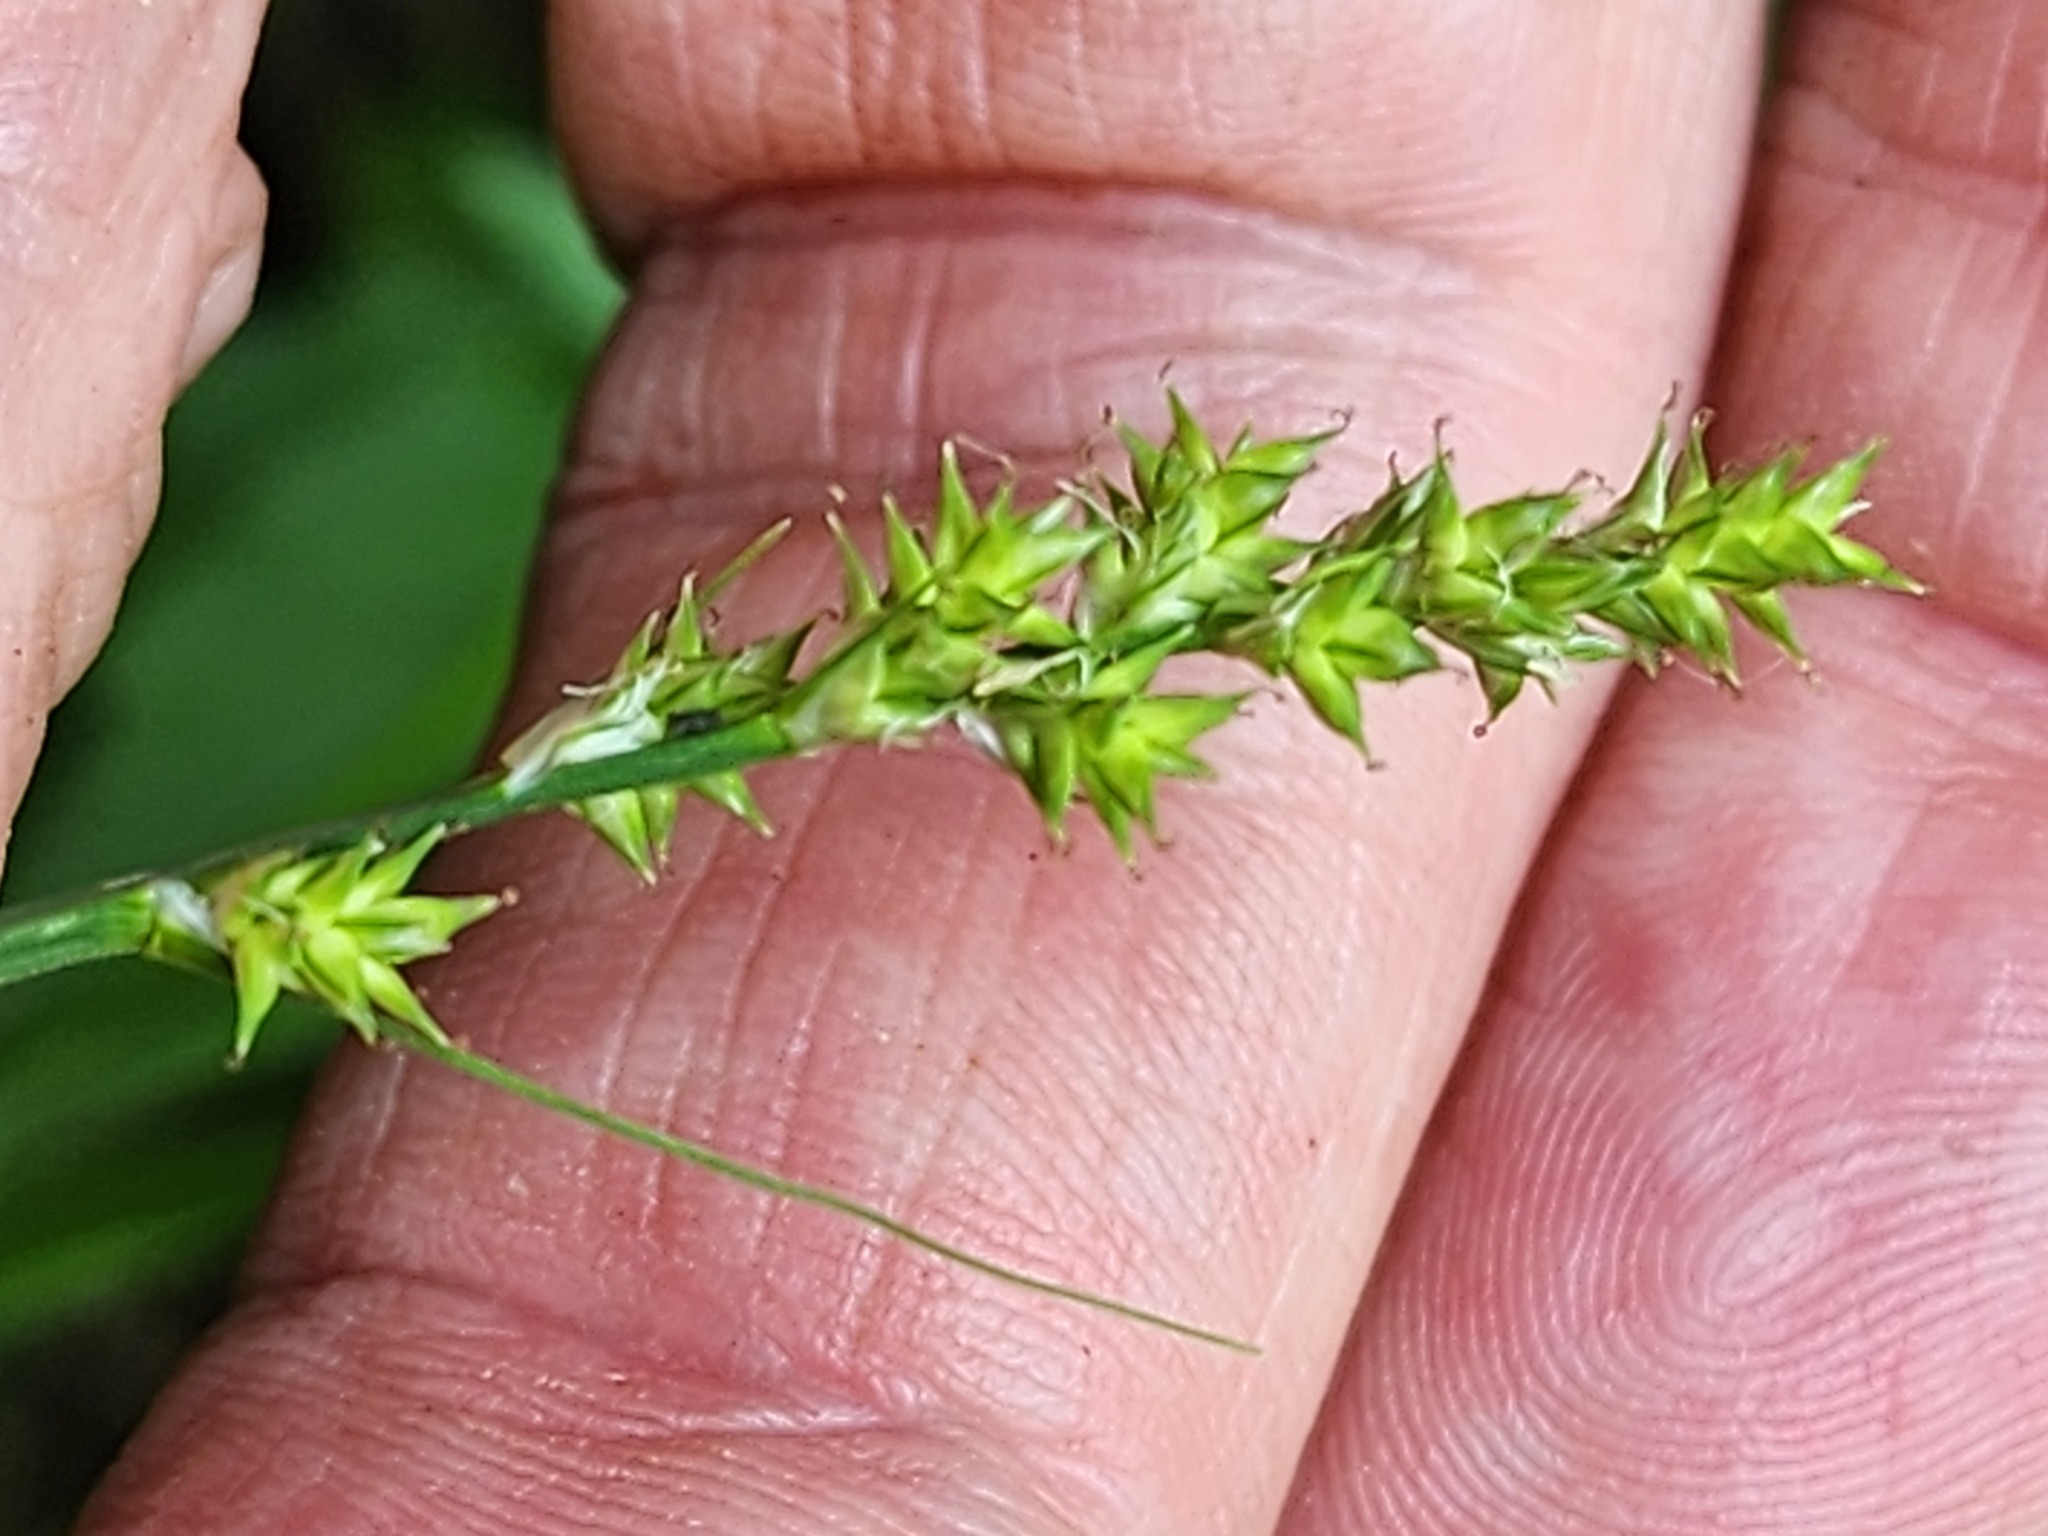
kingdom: Plantae
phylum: Tracheophyta
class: Liliopsida
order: Poales
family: Cyperaceae
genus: Carex
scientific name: Carex arcta
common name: Bear sedge
